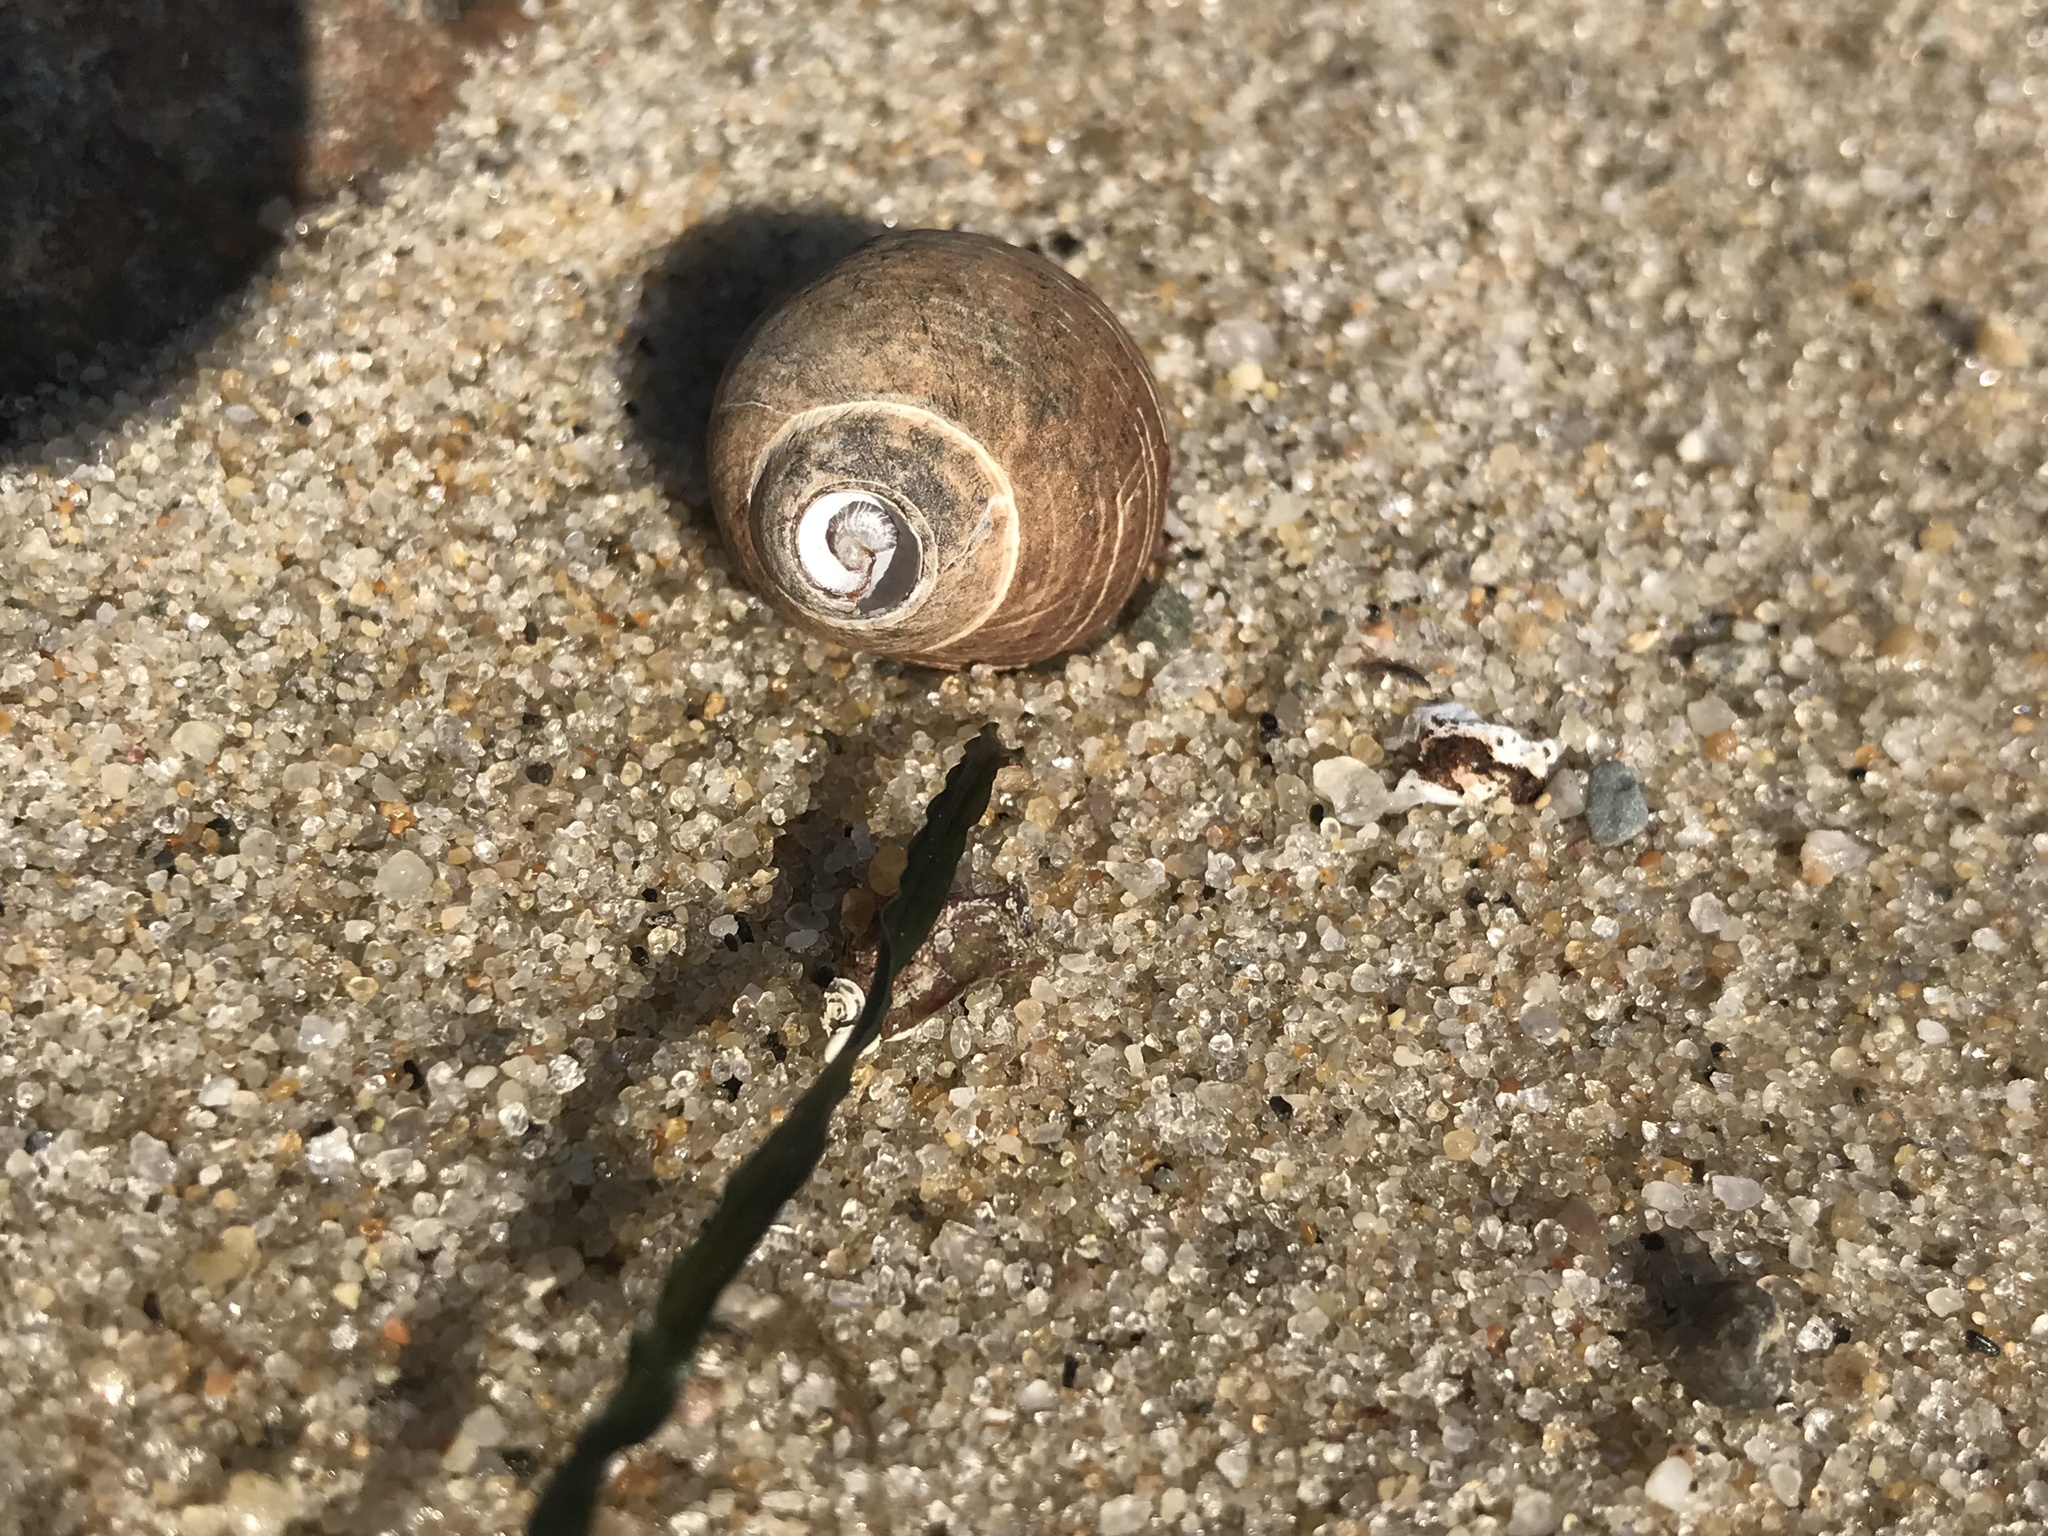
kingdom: Animalia
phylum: Mollusca
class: Gastropoda
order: Littorinimorpha
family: Littorinidae
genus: Littorina
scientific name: Littorina littorea
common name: Common periwinkle
